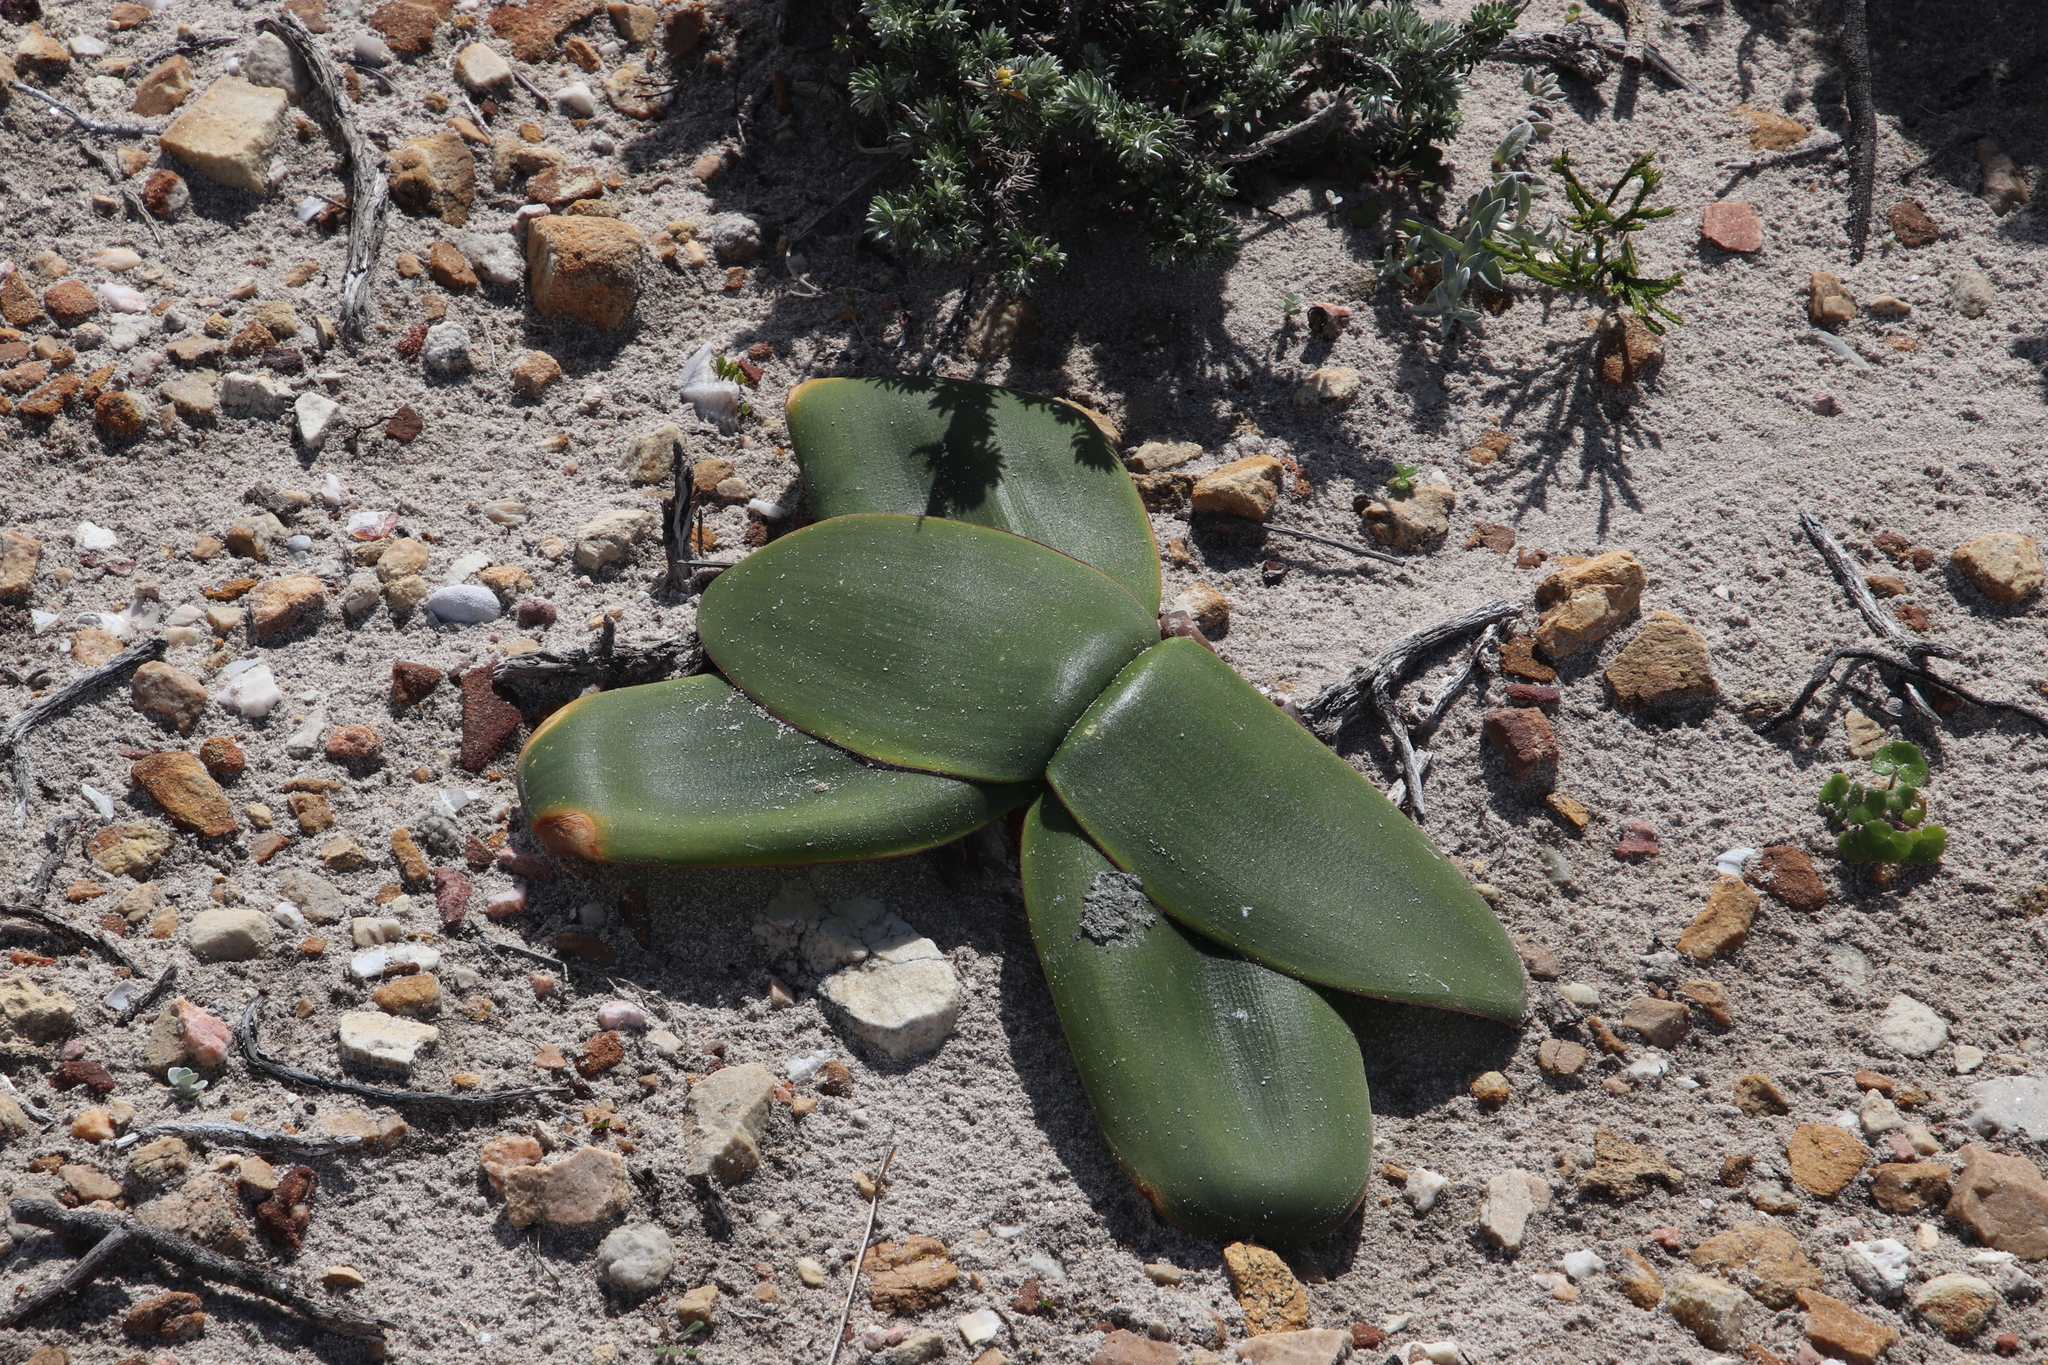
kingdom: Plantae
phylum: Tracheophyta
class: Liliopsida
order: Asparagales
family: Amaryllidaceae
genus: Brunsvigia
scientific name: Brunsvigia orientalis
